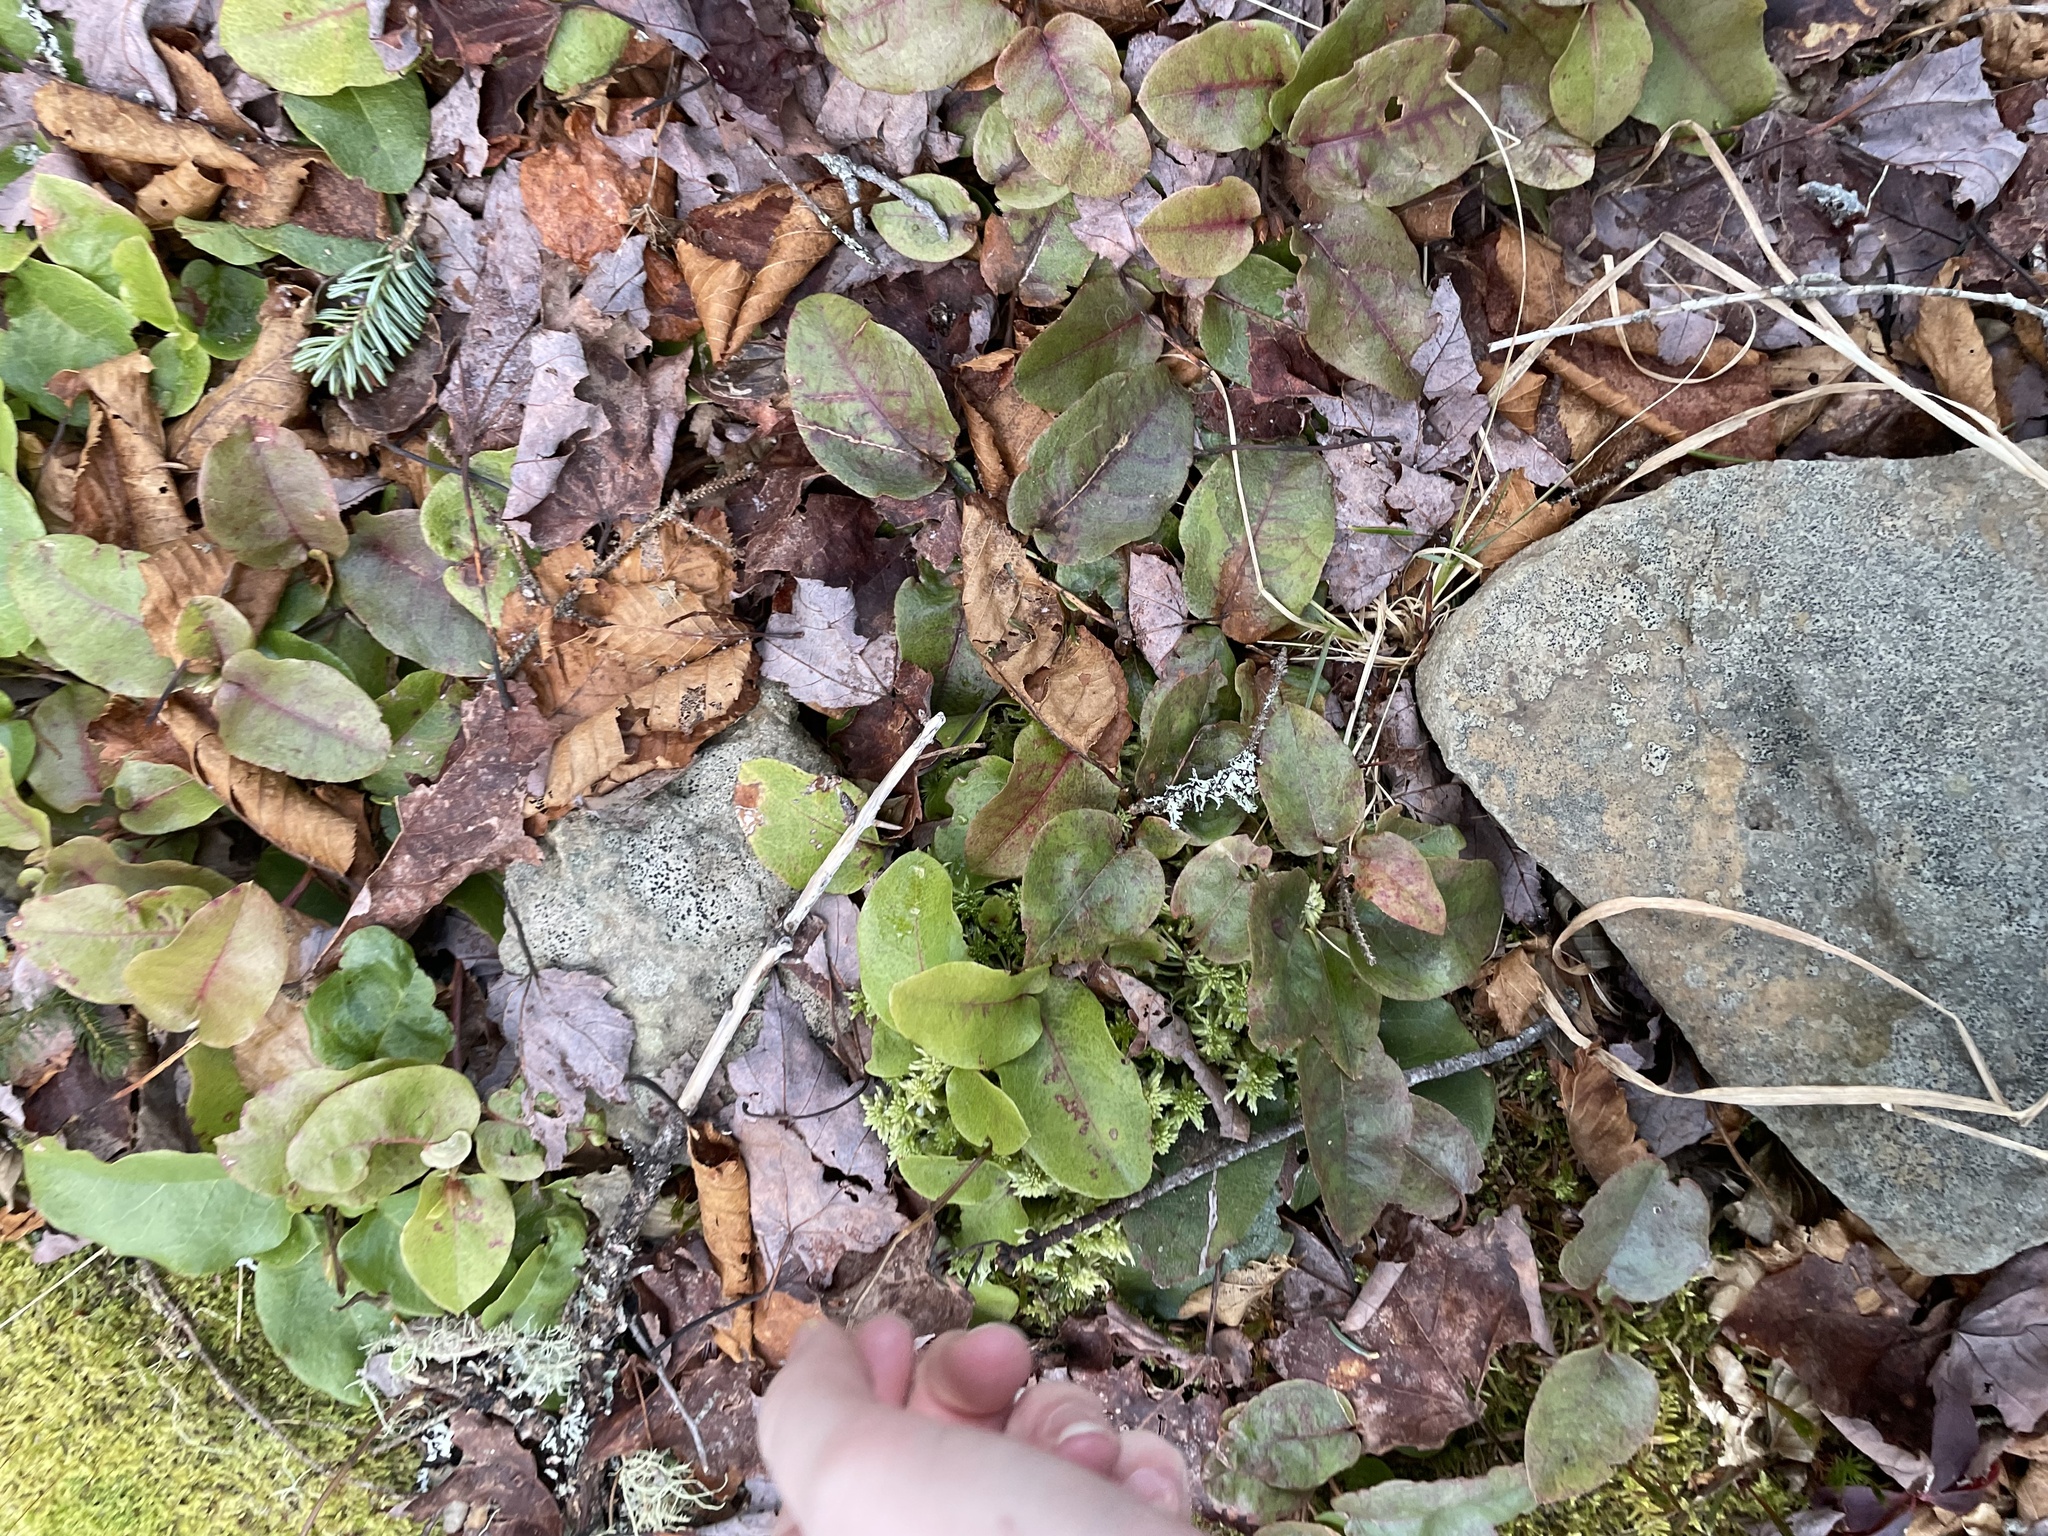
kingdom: Plantae
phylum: Tracheophyta
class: Magnoliopsida
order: Ericales
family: Ericaceae
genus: Epigaea
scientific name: Epigaea repens
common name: Gravelroot
